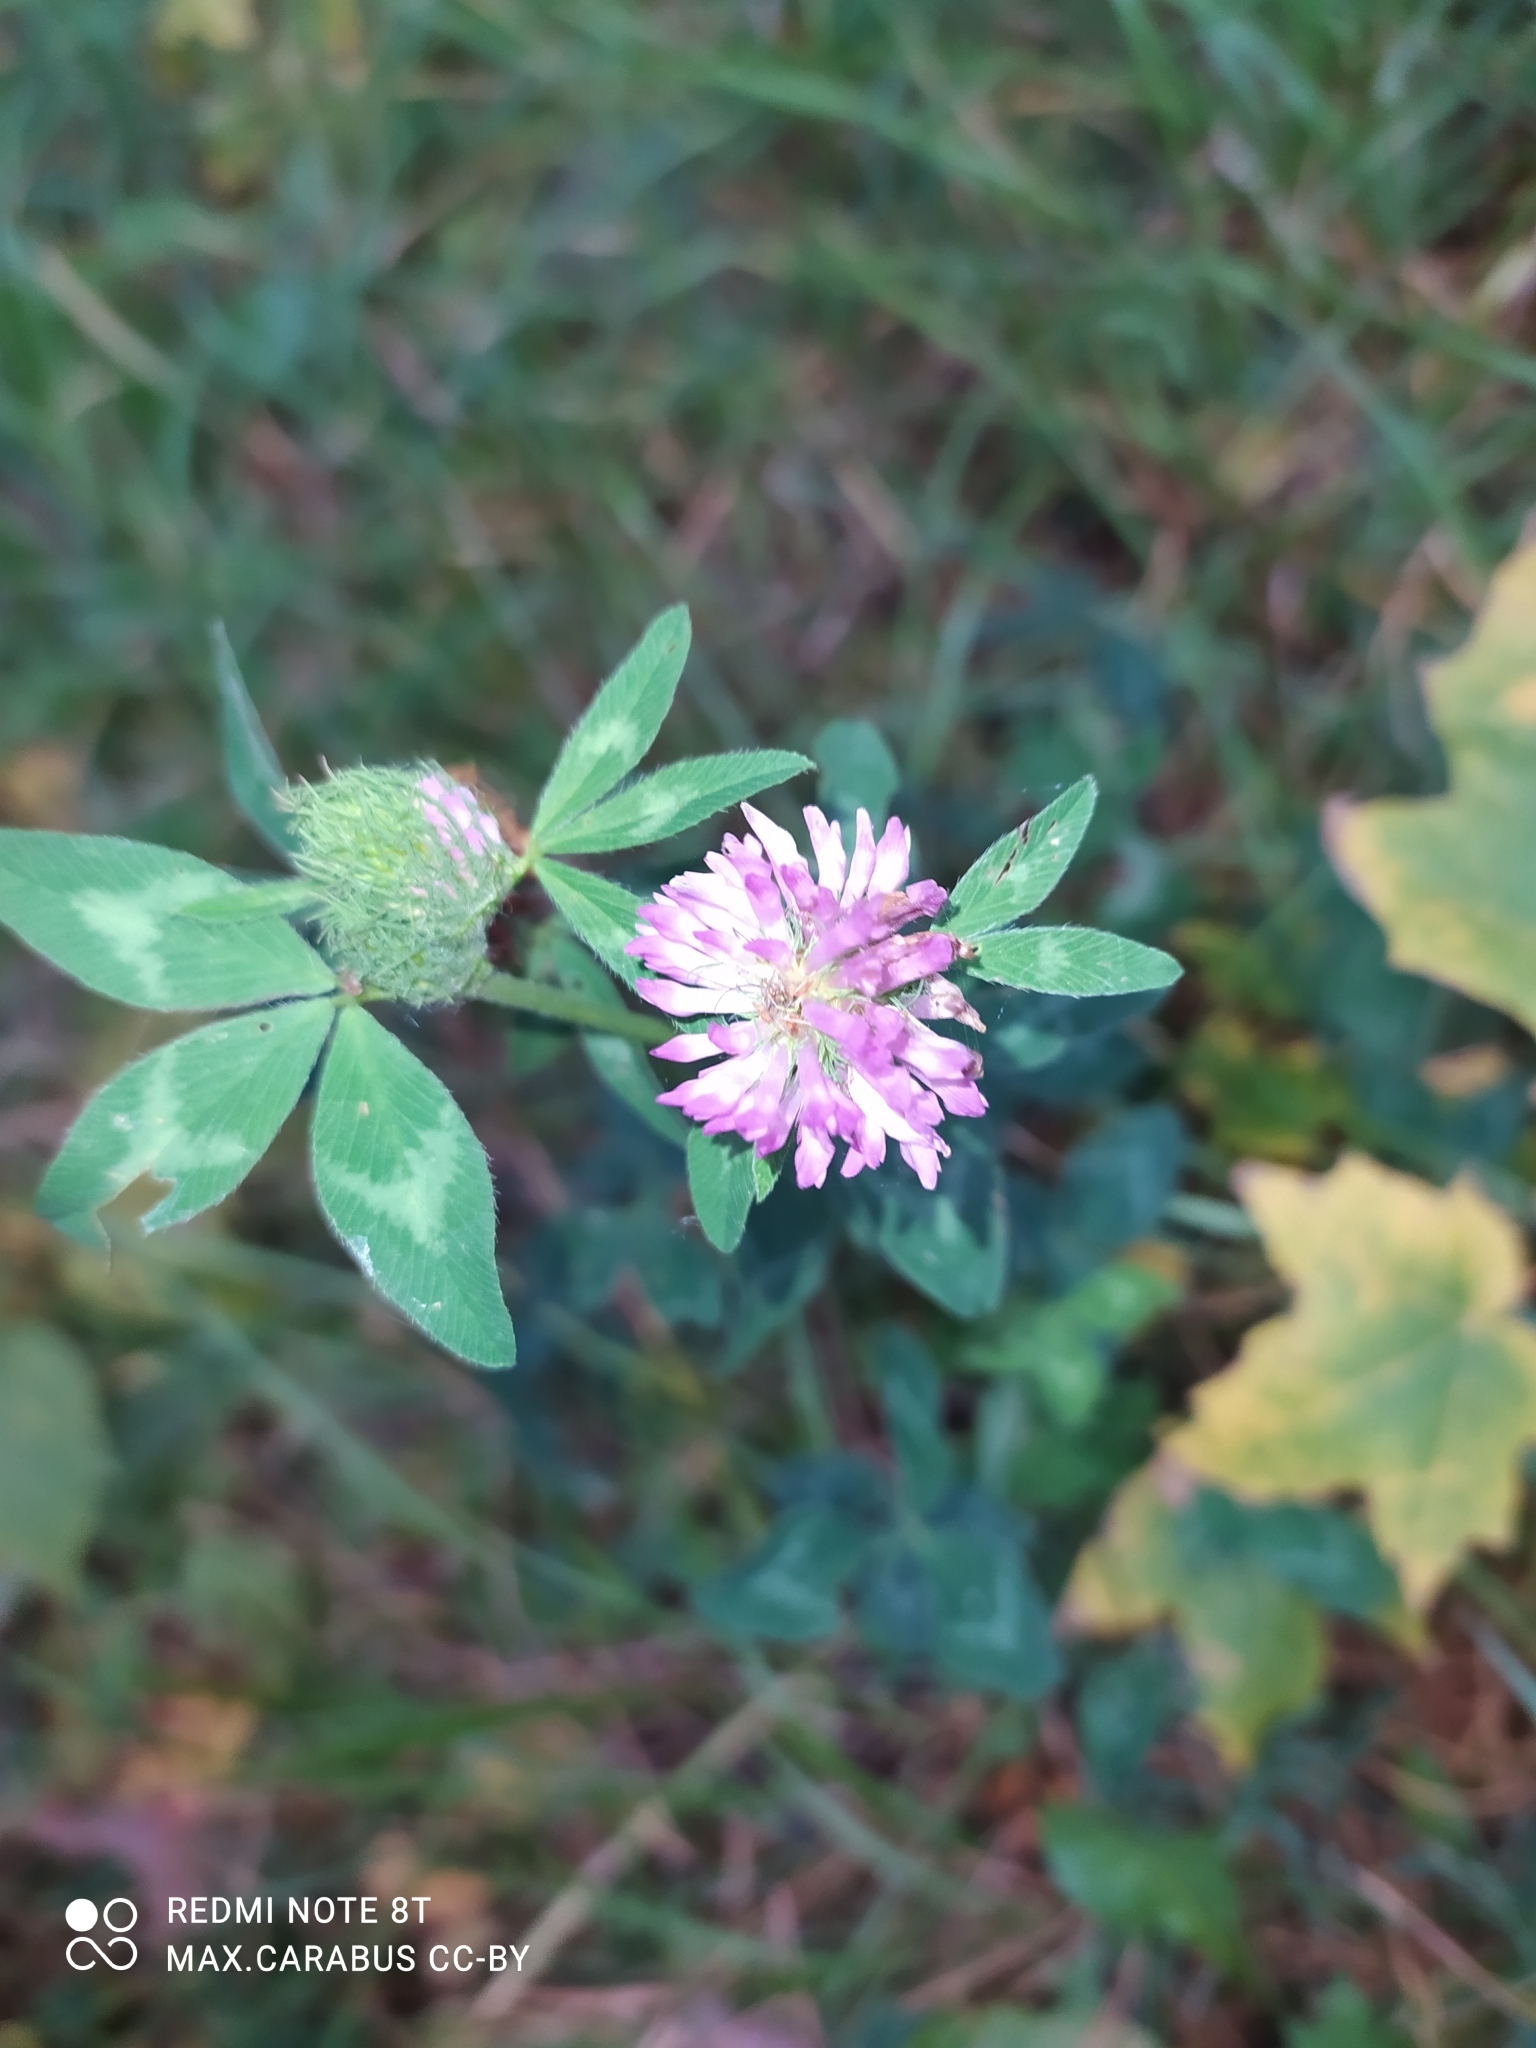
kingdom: Plantae
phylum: Tracheophyta
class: Magnoliopsida
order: Fabales
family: Fabaceae
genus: Trifolium
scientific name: Trifolium pratense
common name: Red clover
